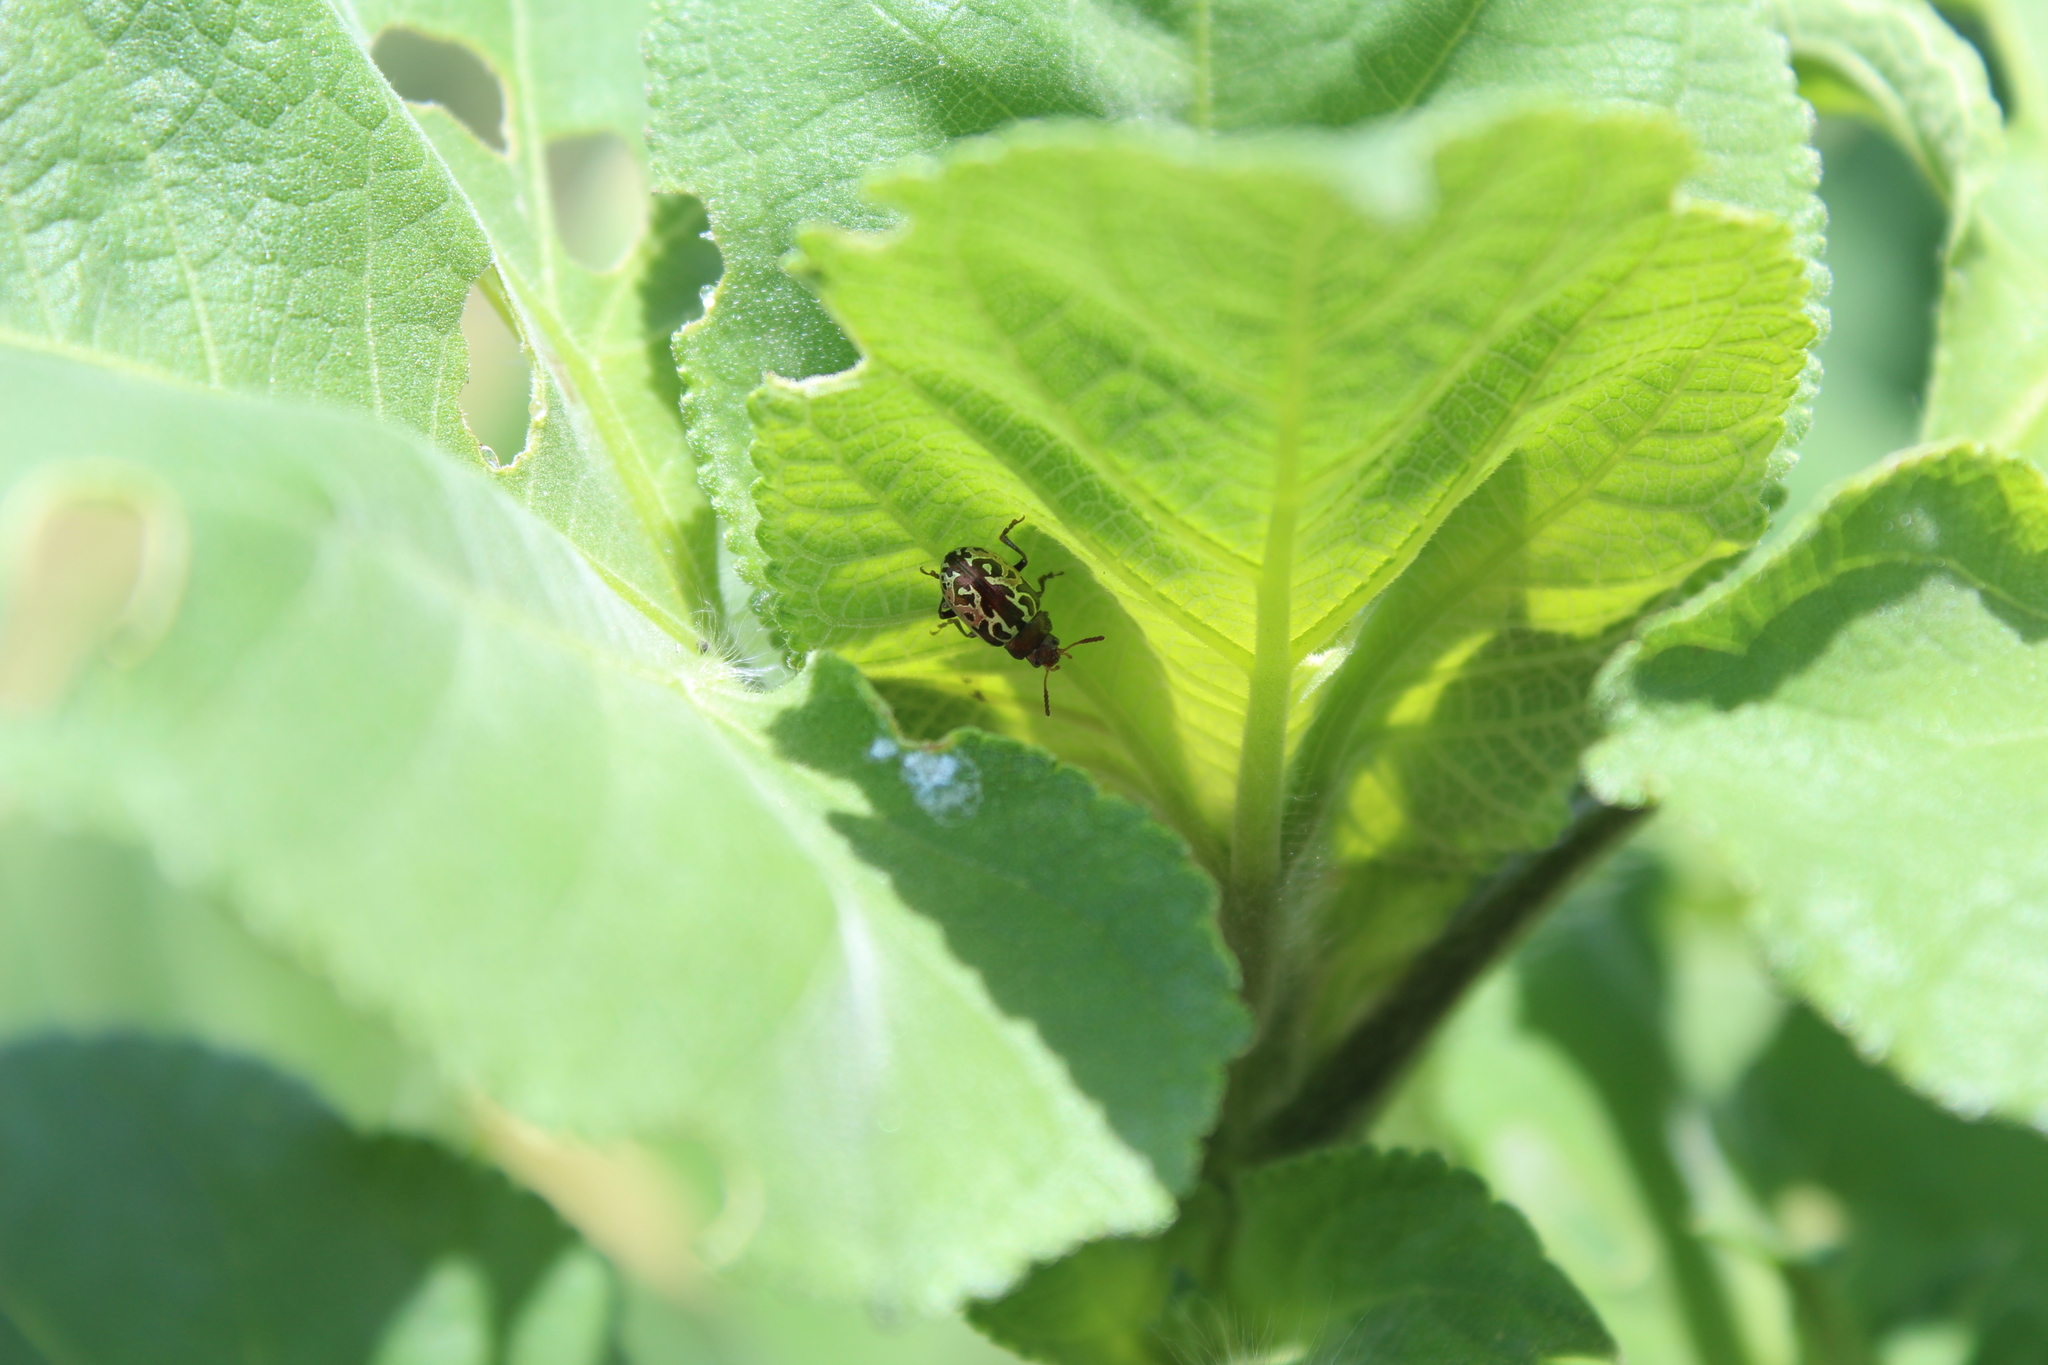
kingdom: Animalia
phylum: Arthropoda
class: Insecta
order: Coleoptera
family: Chrysomelidae
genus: Calligrapha
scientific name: Calligrapha
